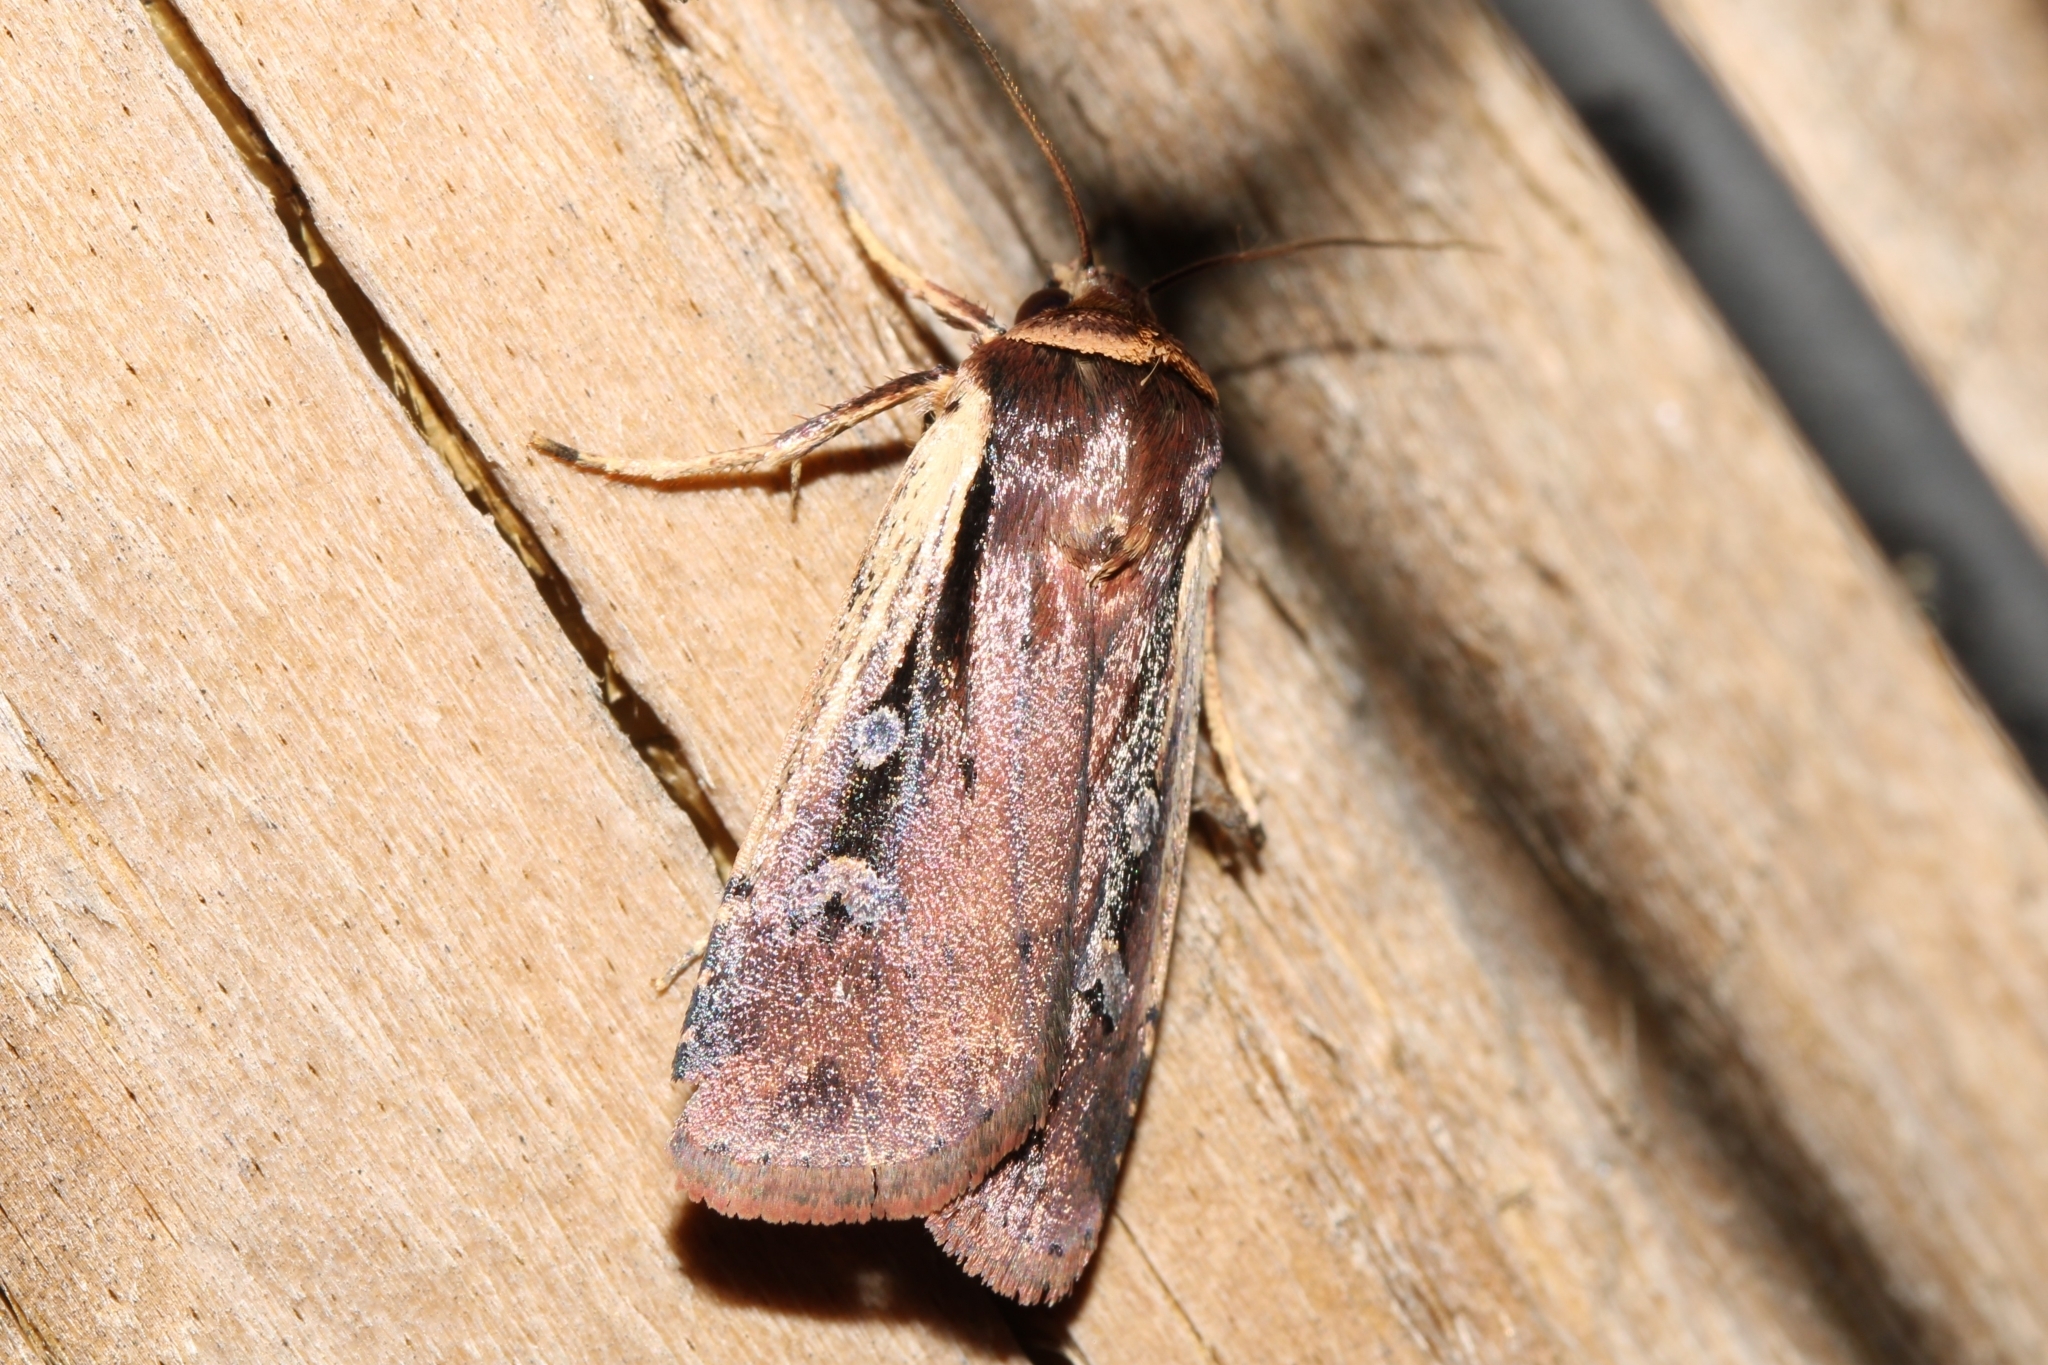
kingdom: Animalia
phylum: Arthropoda
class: Insecta
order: Lepidoptera
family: Noctuidae
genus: Ochropleura
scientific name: Ochropleura implecta
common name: Flame-shouldered dart
